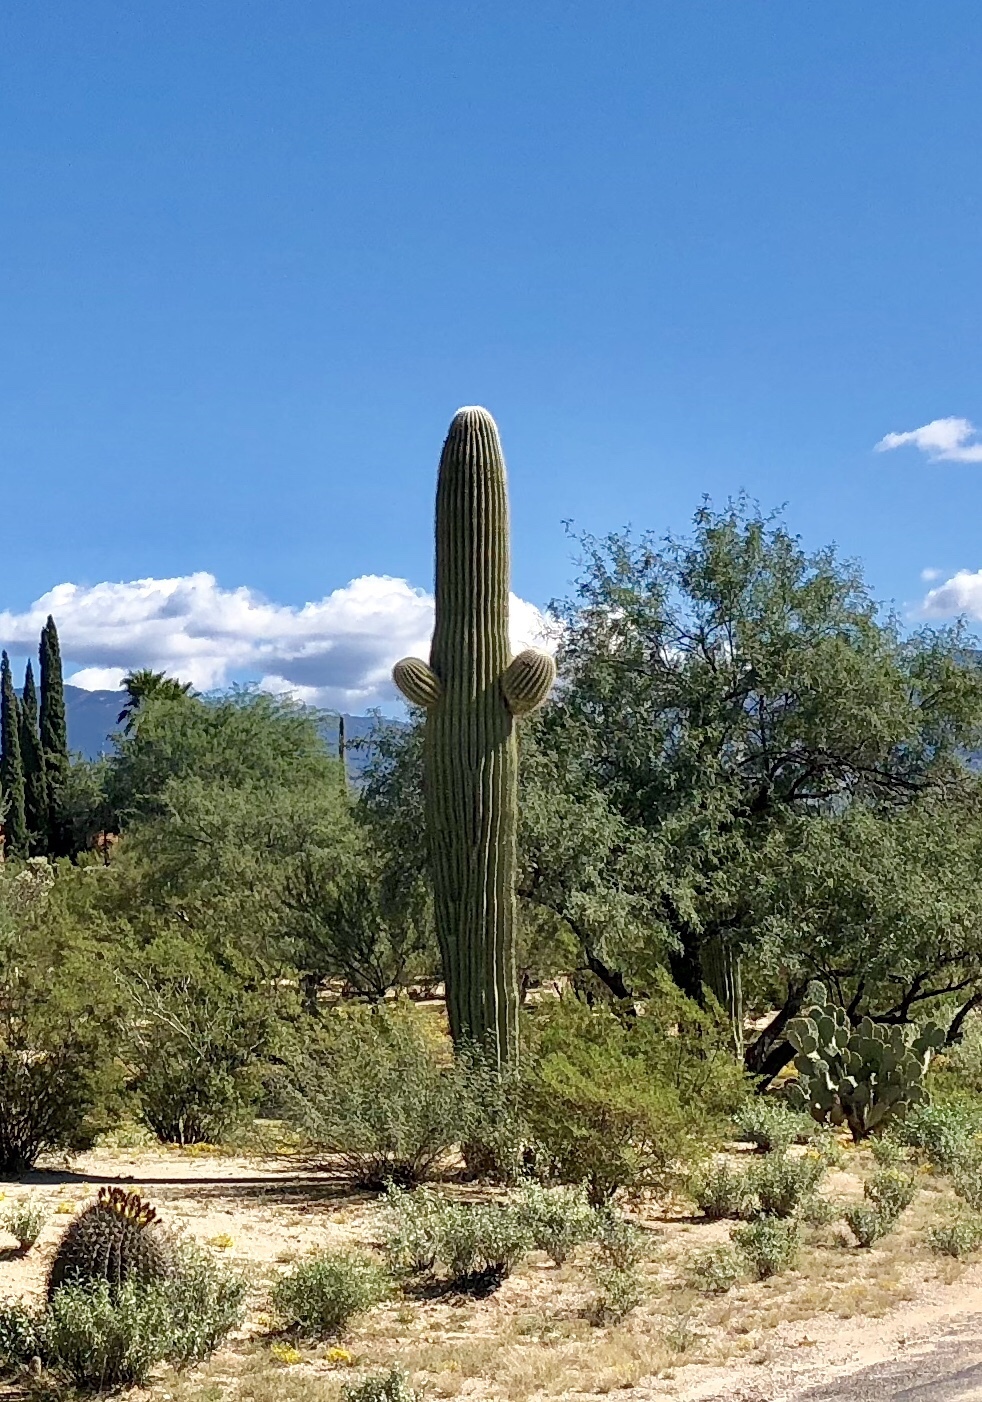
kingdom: Plantae
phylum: Tracheophyta
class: Magnoliopsida
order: Caryophyllales
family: Cactaceae
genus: Carnegiea
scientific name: Carnegiea gigantea
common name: Saguaro
